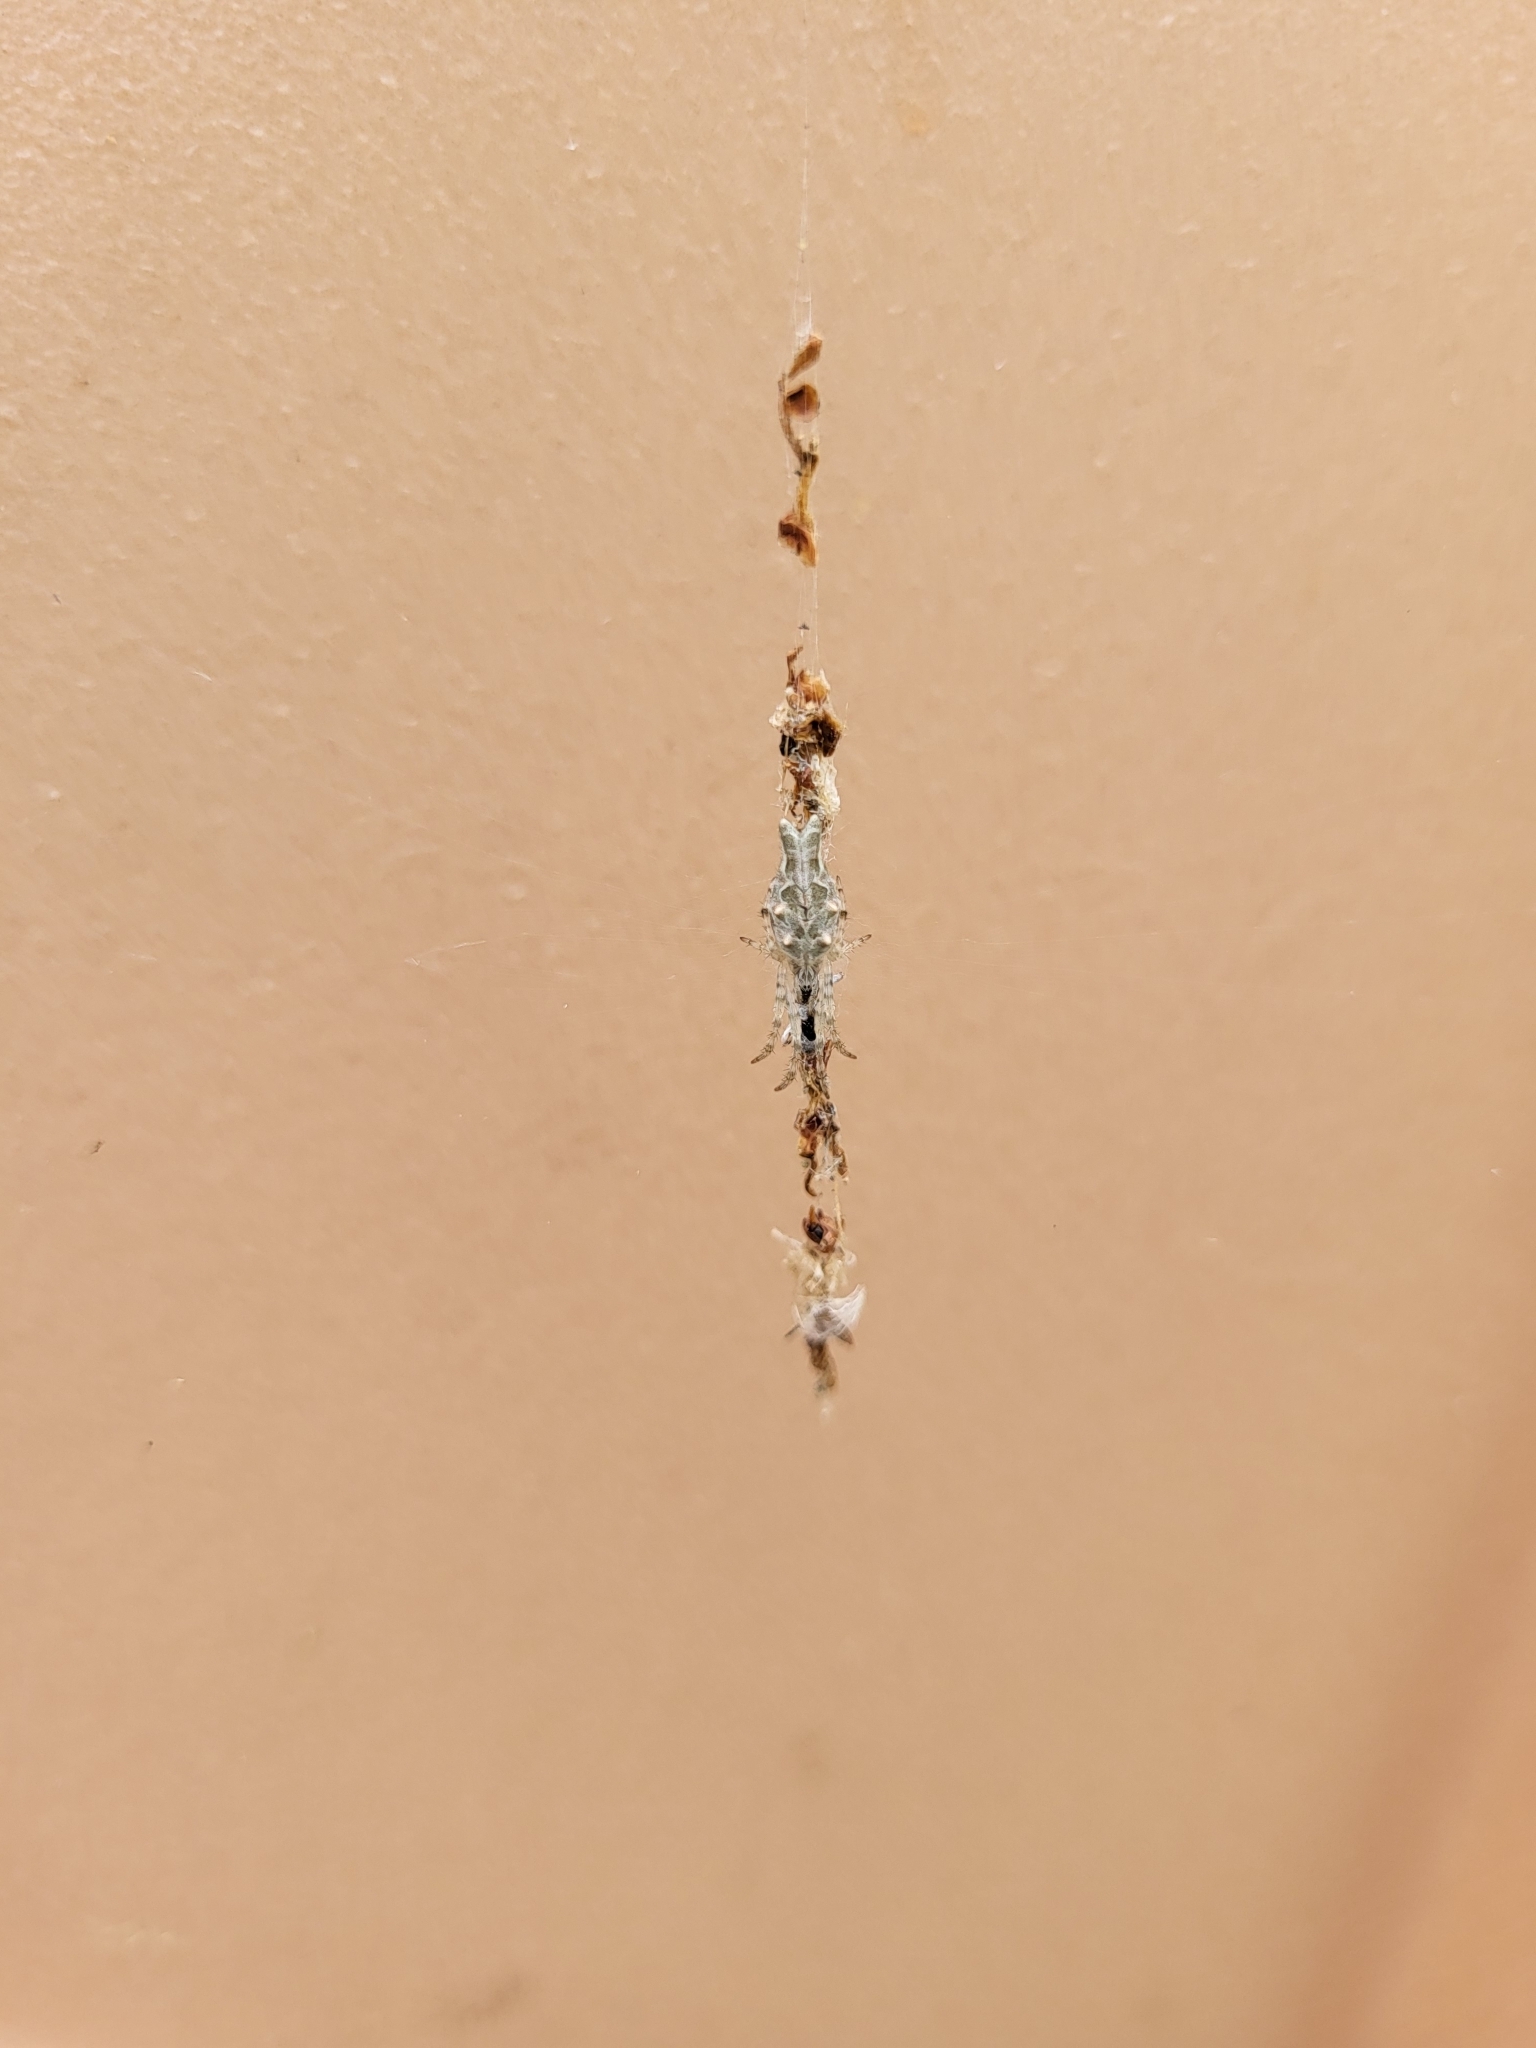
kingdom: Animalia
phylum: Arthropoda
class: Arachnida
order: Araneae
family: Araneidae
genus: Allocyclosa
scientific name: Allocyclosa bifurca
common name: Orb weavers
